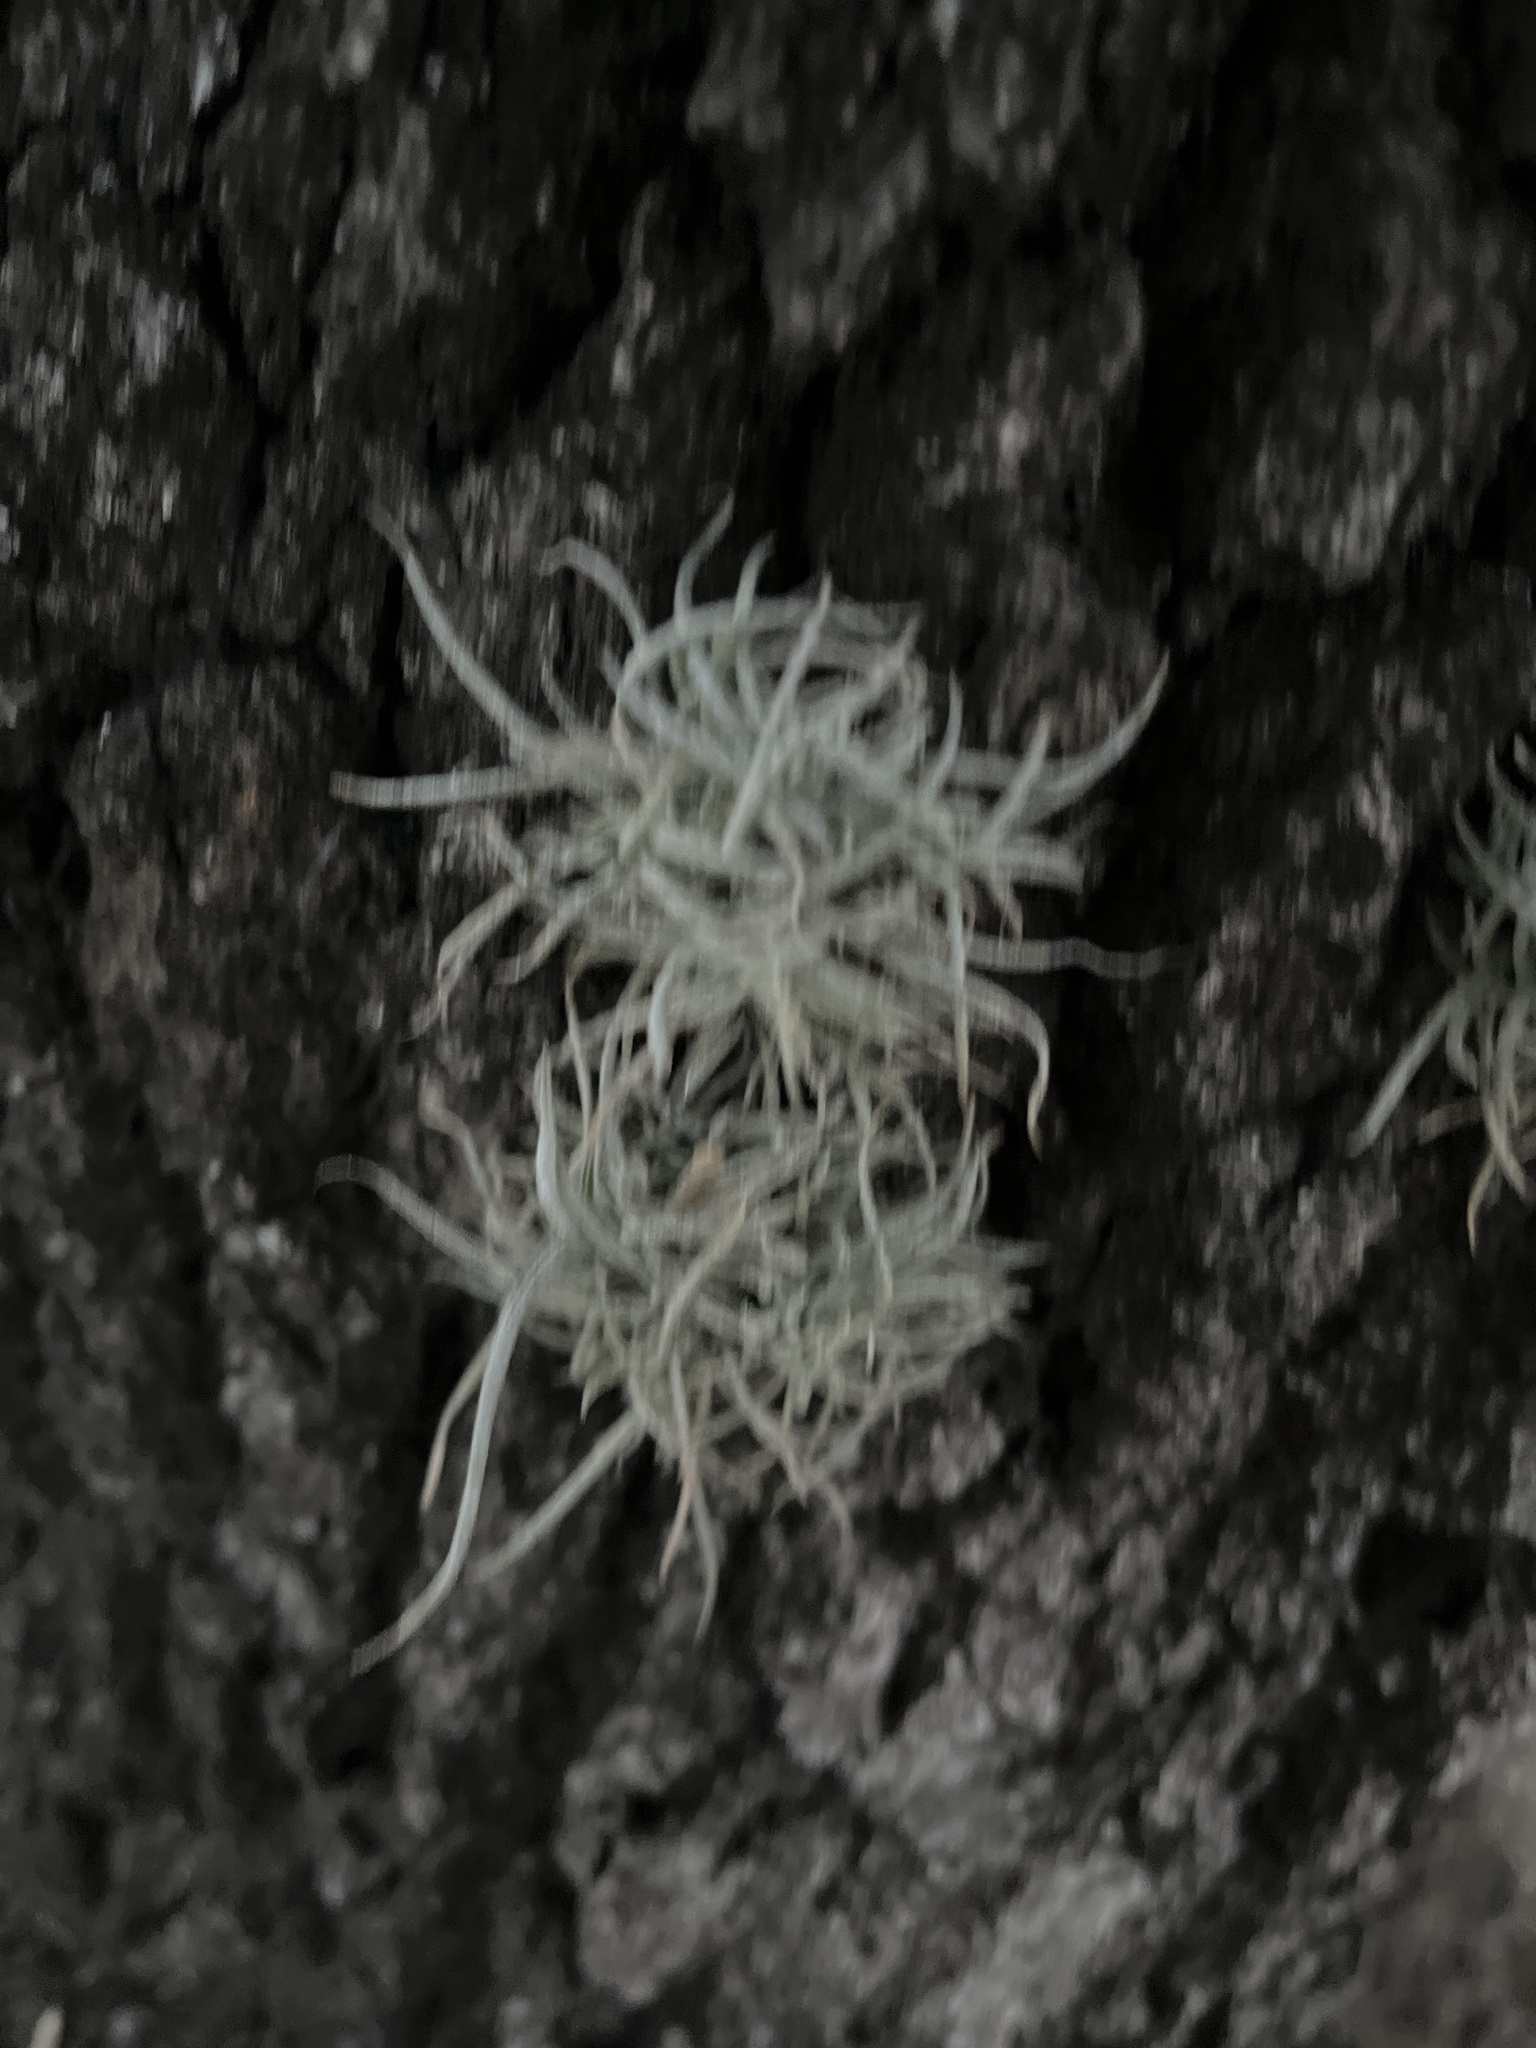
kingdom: Plantae
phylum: Tracheophyta
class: Liliopsida
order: Poales
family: Bromeliaceae
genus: Tillandsia
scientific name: Tillandsia recurvata
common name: Small ballmoss
